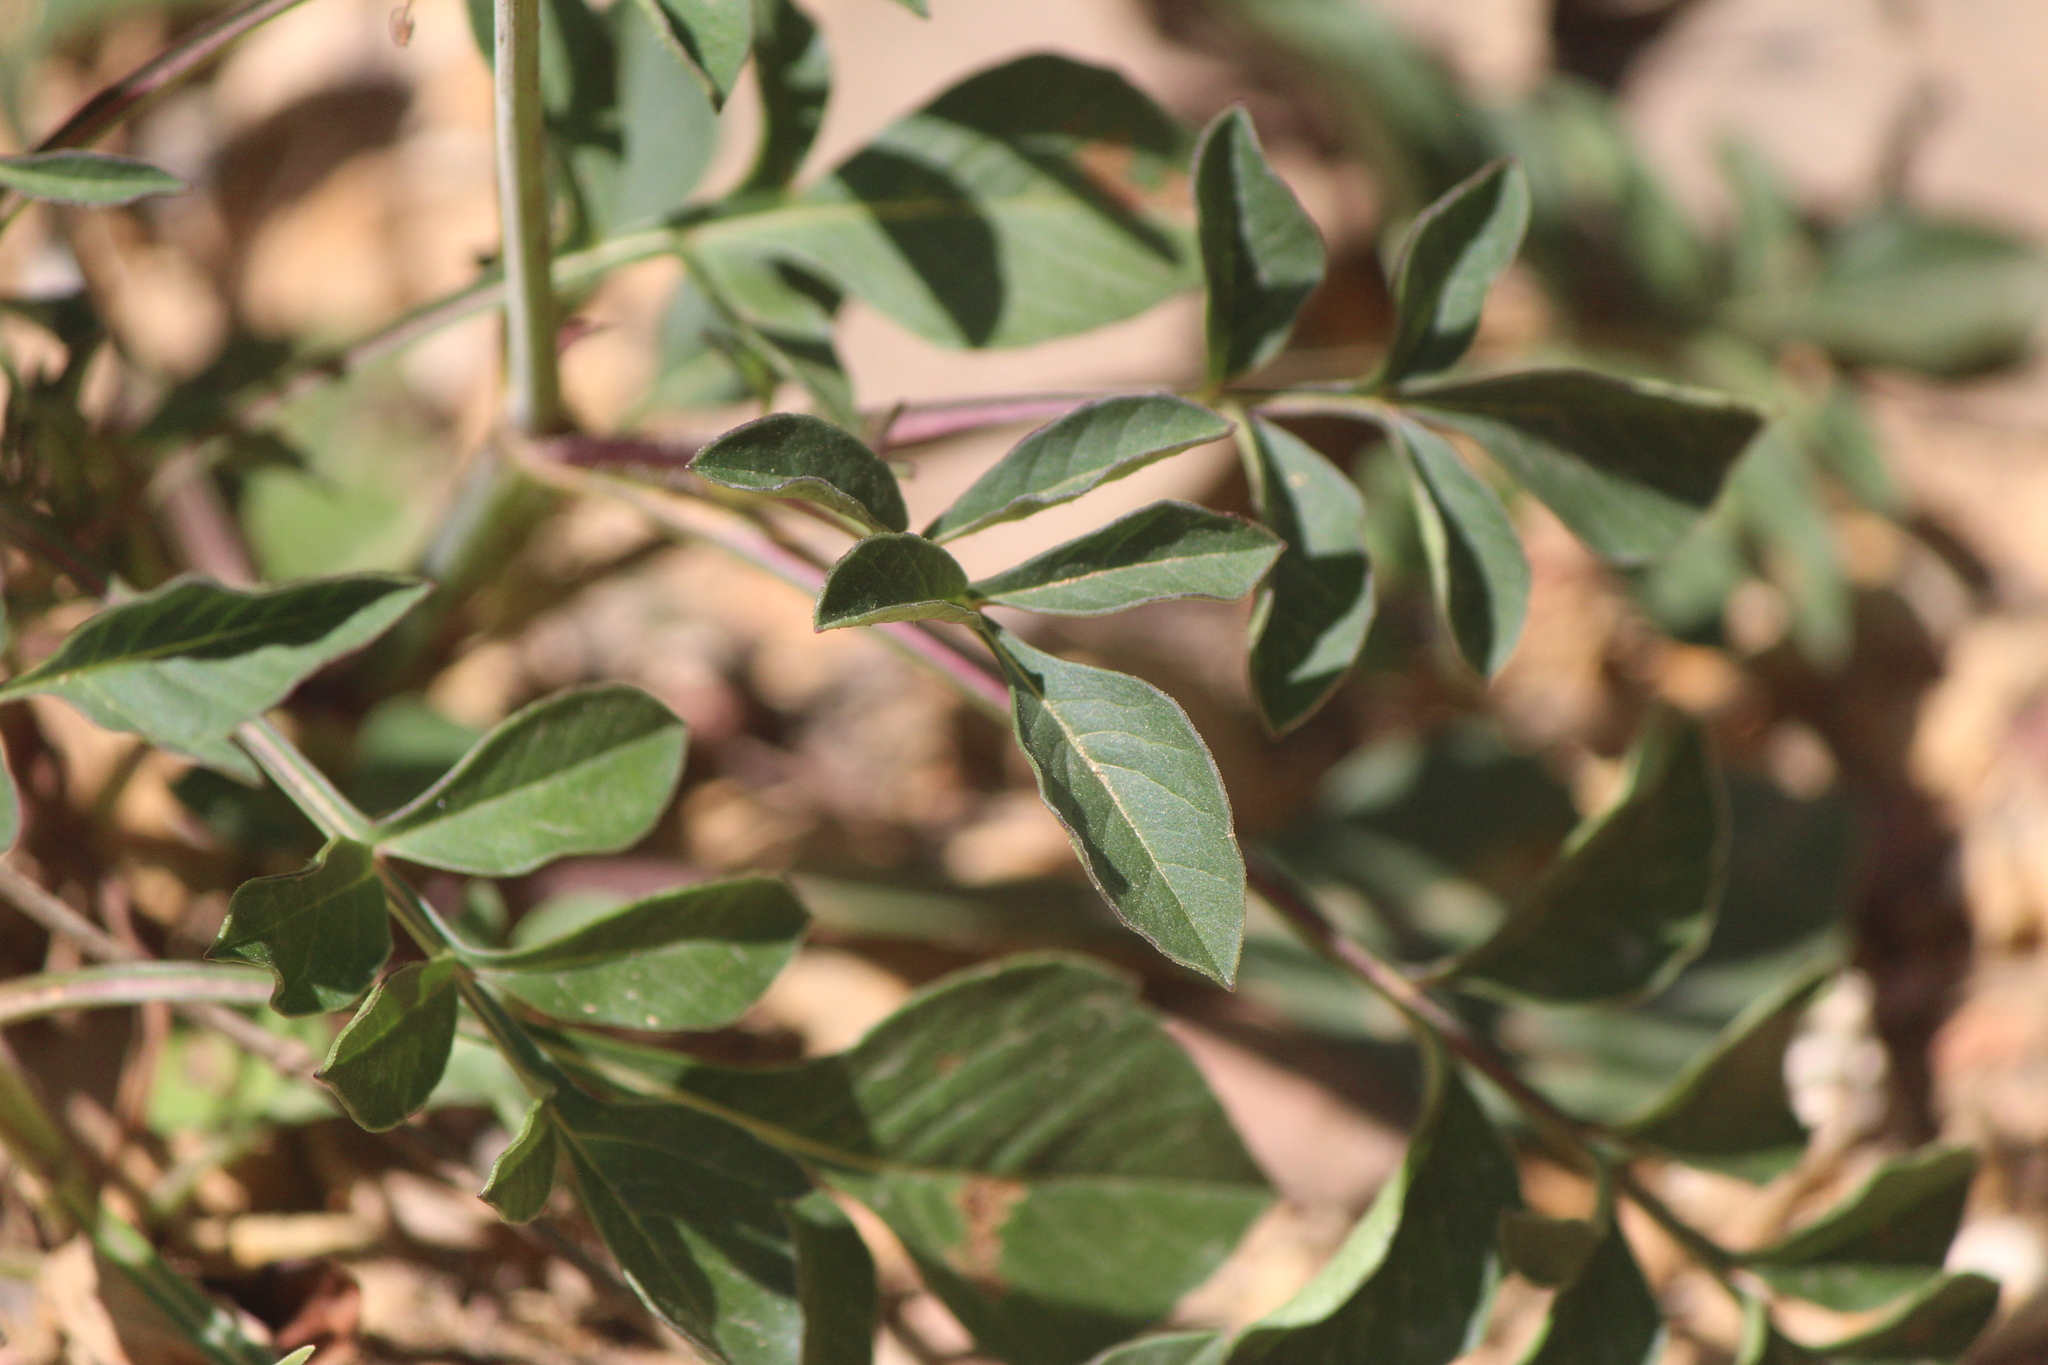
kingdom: Plantae
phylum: Tracheophyta
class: Magnoliopsida
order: Asterales
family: Asteraceae
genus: Cosmos
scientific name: Cosmos diversifolius
